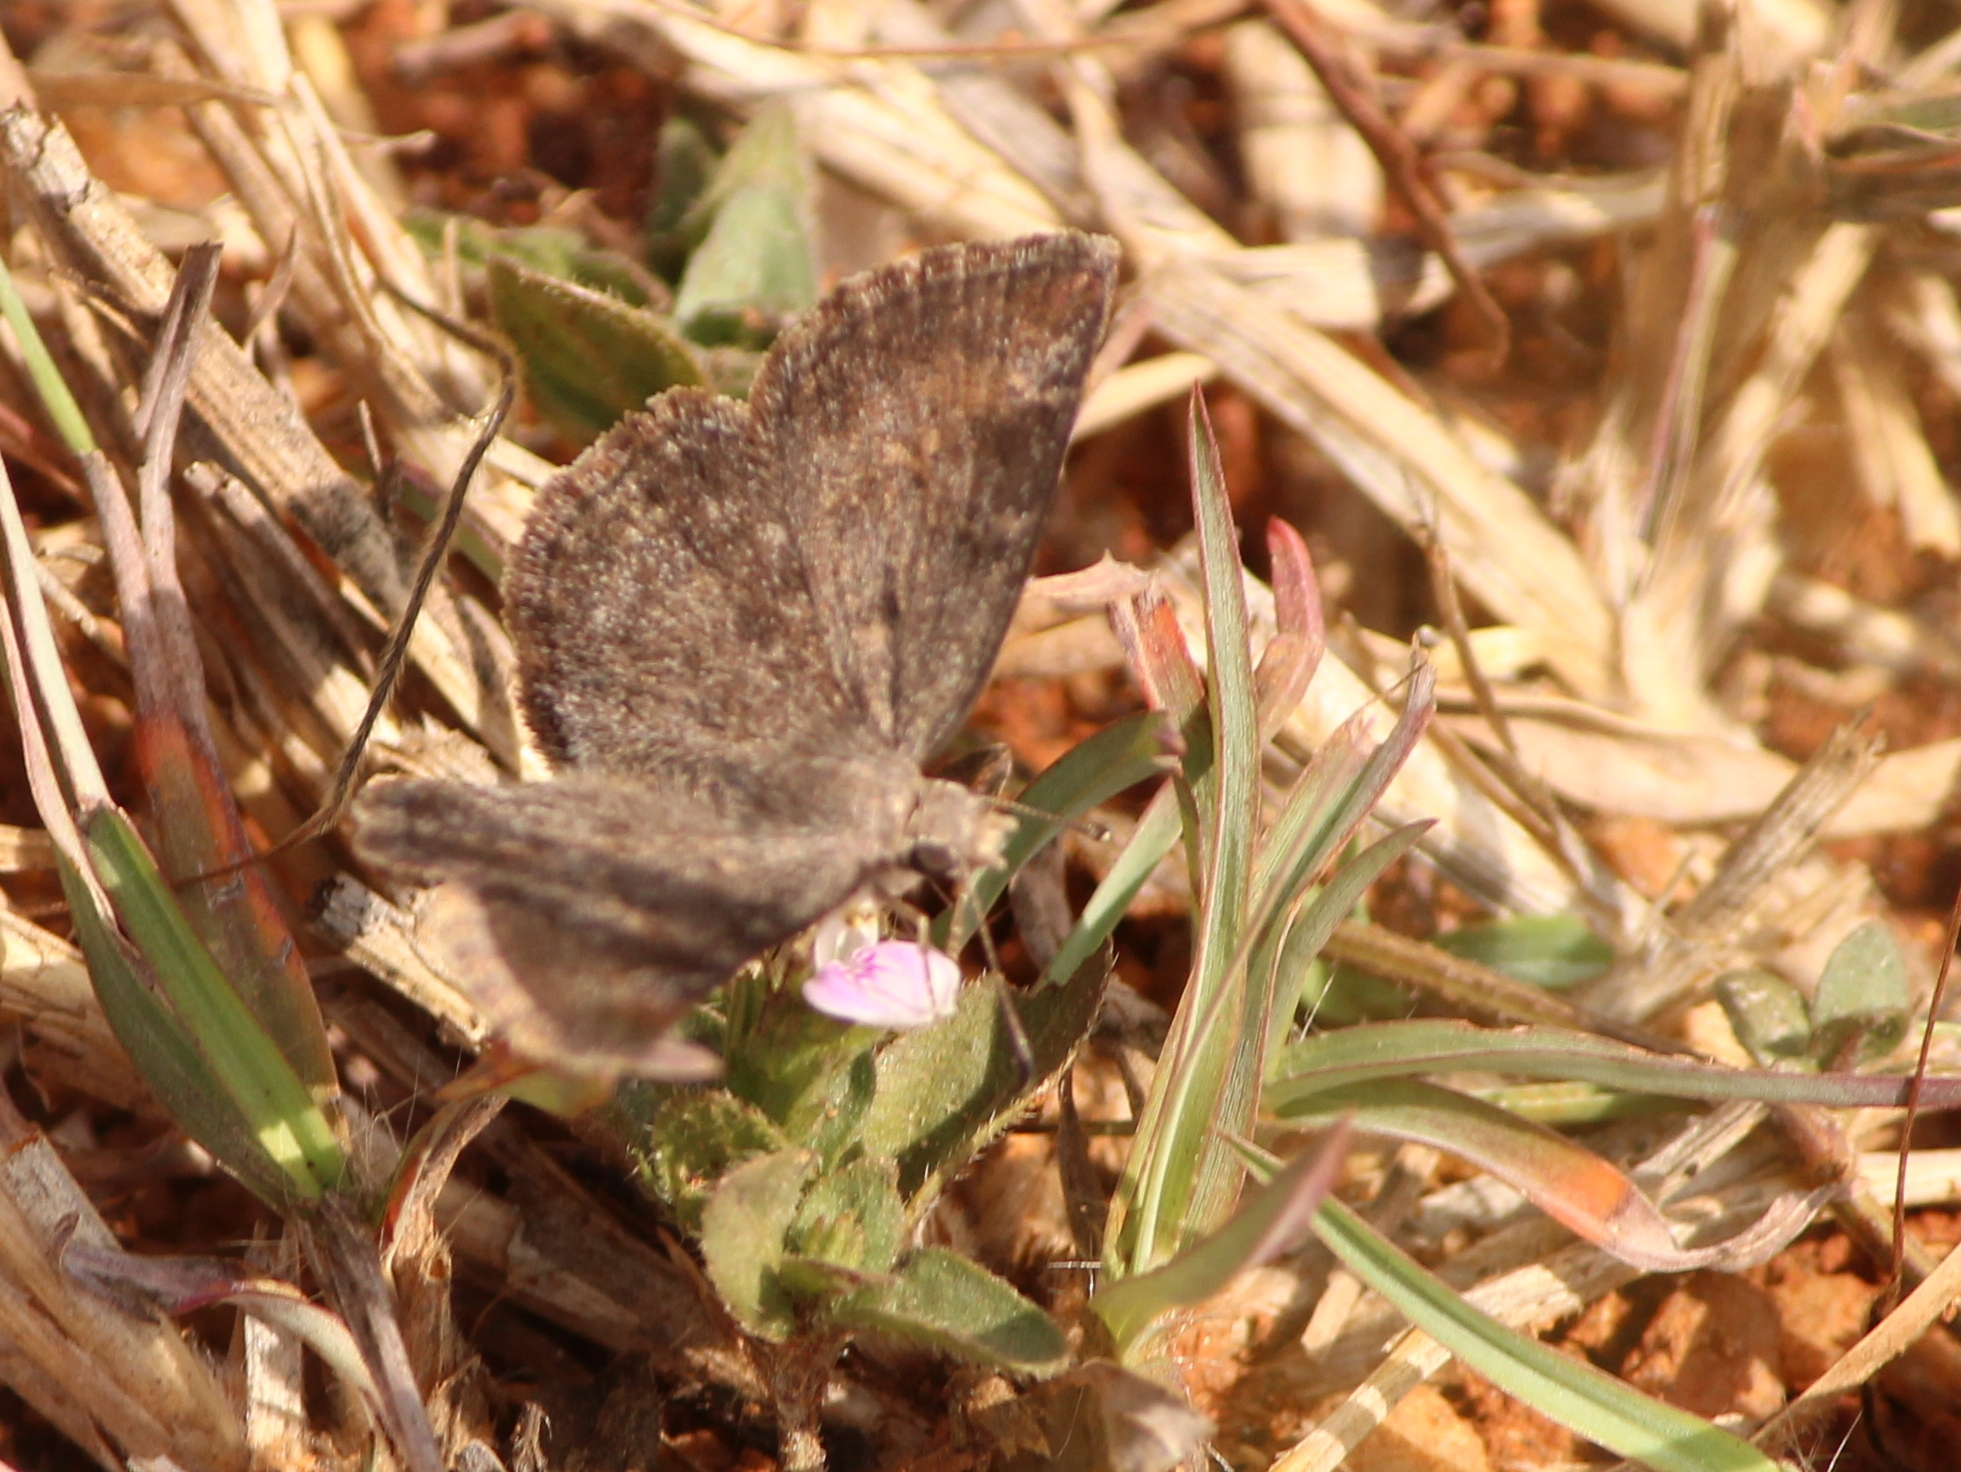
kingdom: Animalia
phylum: Arthropoda
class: Insecta
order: Lepidoptera
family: Hesperiidae
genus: Sarangesa
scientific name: Sarangesa purendra
